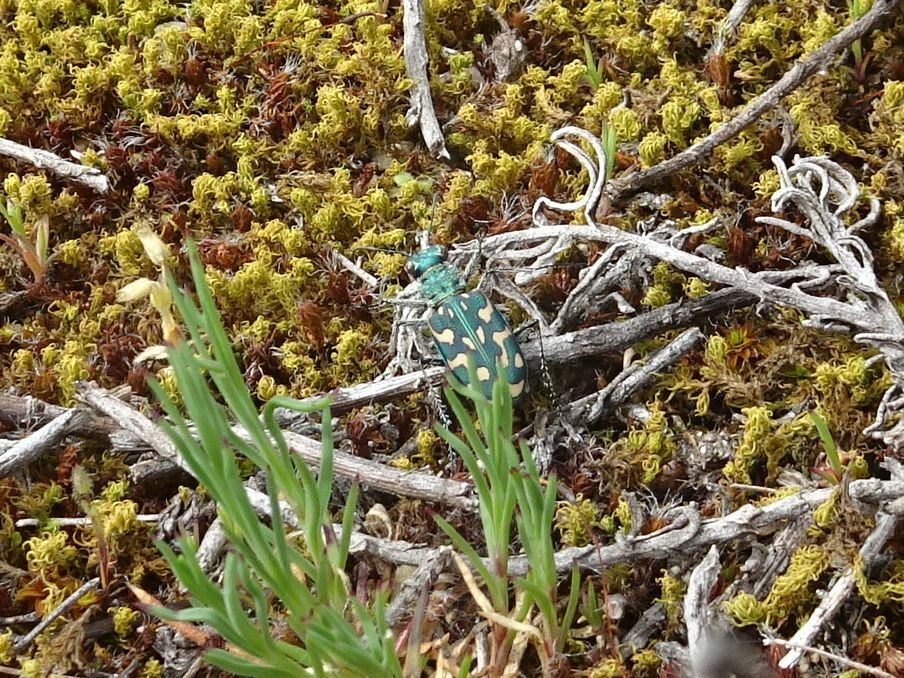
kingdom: Animalia
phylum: Arthropoda
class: Insecta
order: Coleoptera
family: Carabidae
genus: Lophyra
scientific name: Lophyra flexuosa
